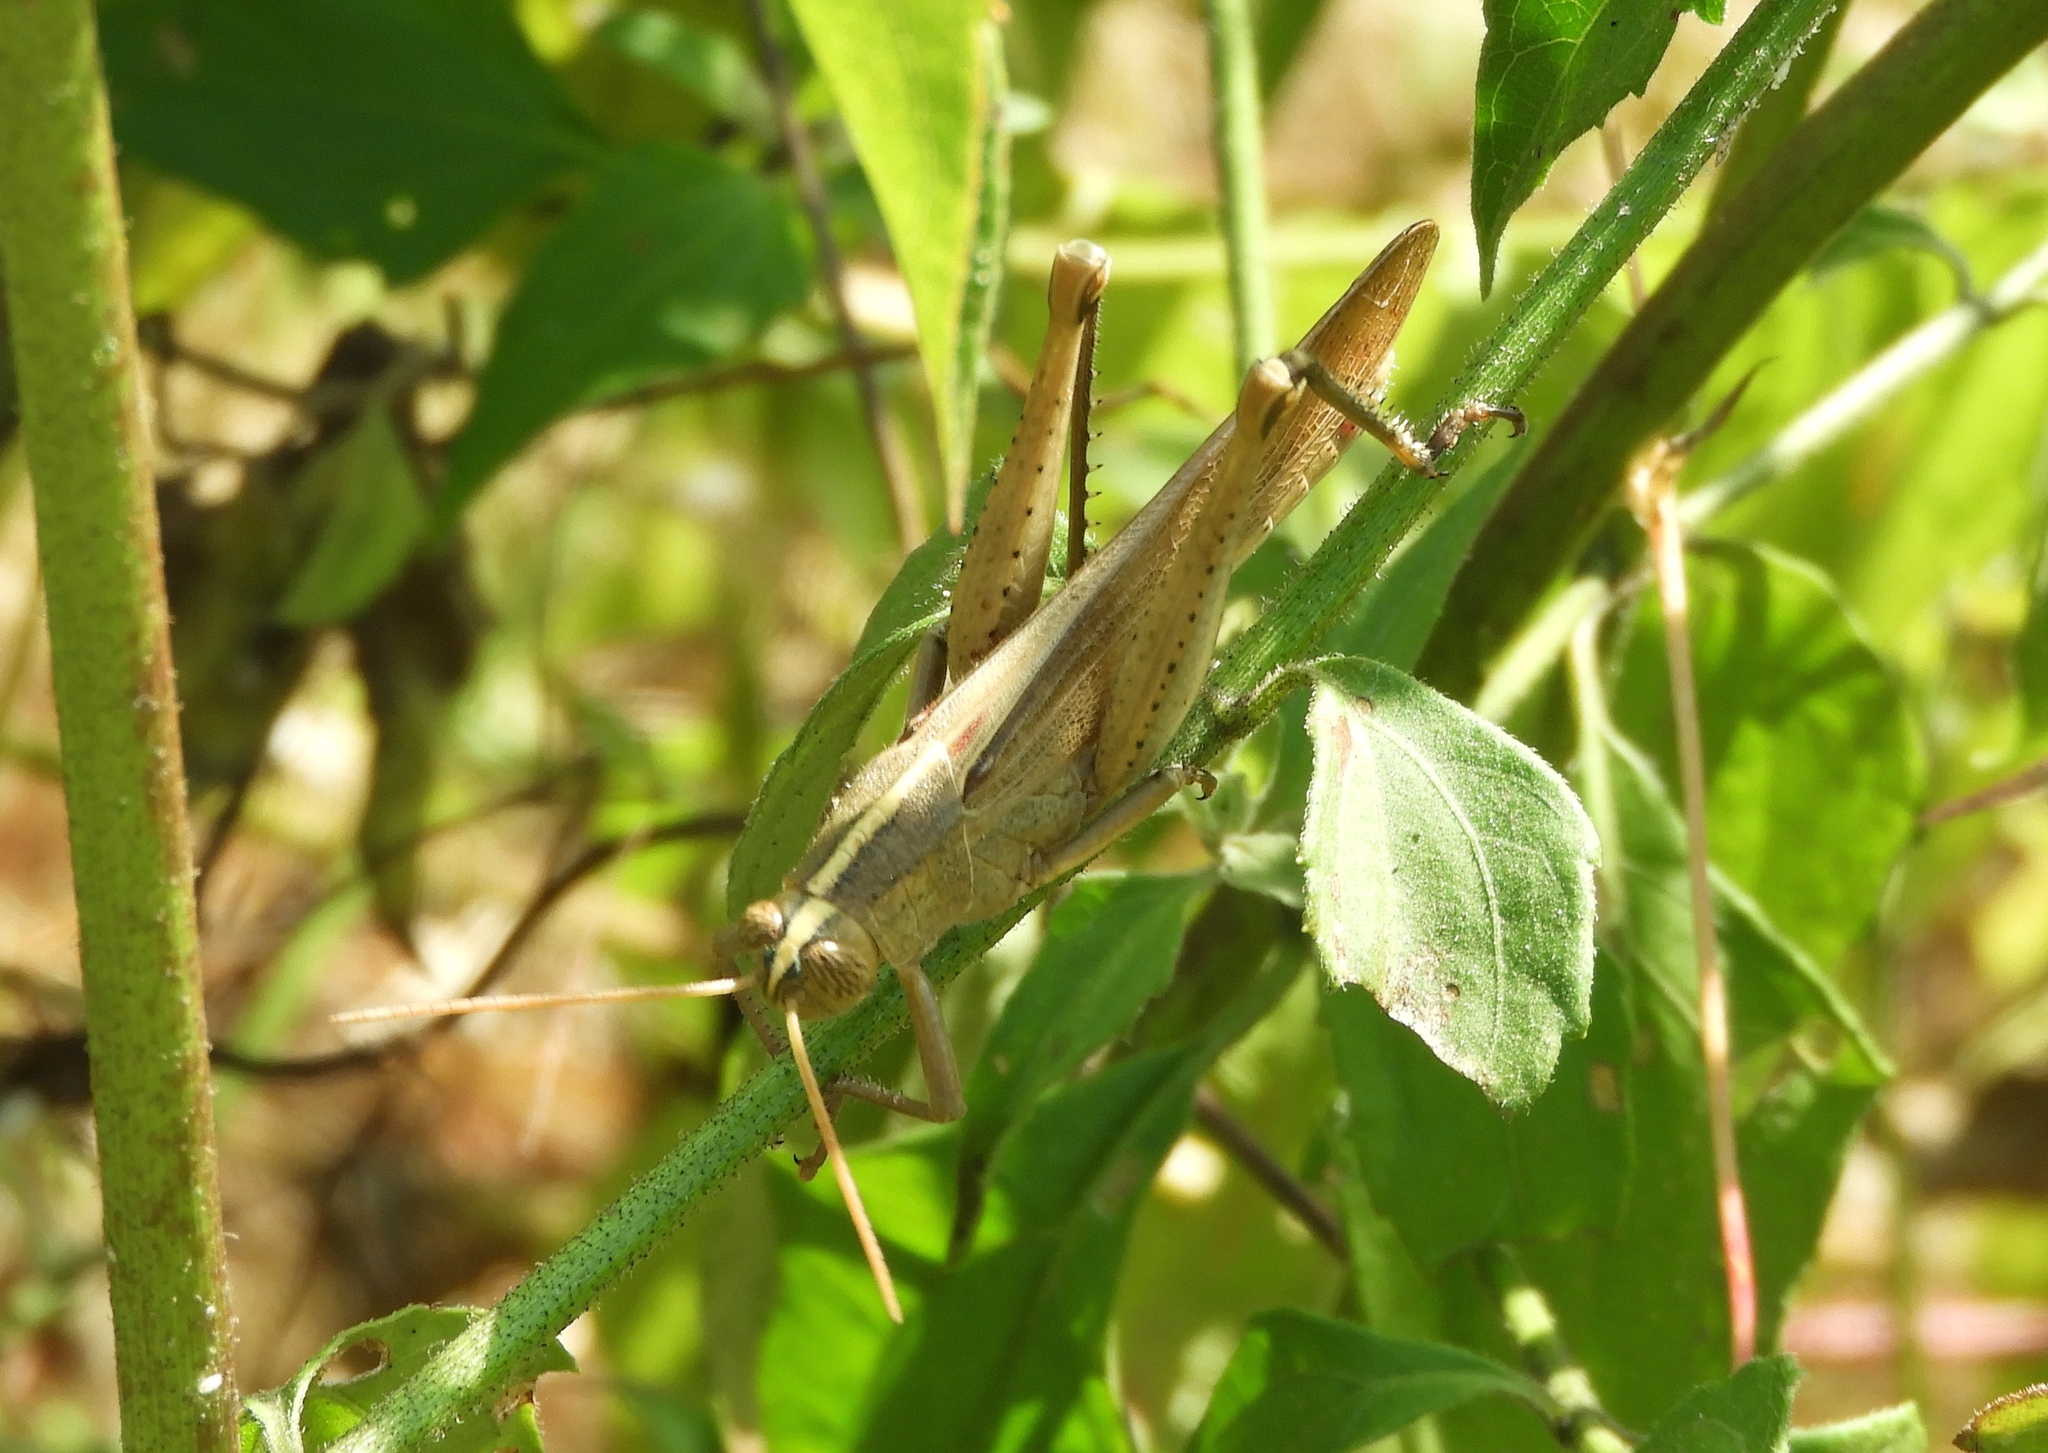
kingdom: Animalia
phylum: Arthropoda
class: Insecta
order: Orthoptera
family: Acrididae
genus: Schistocerca
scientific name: Schistocerca camerata
